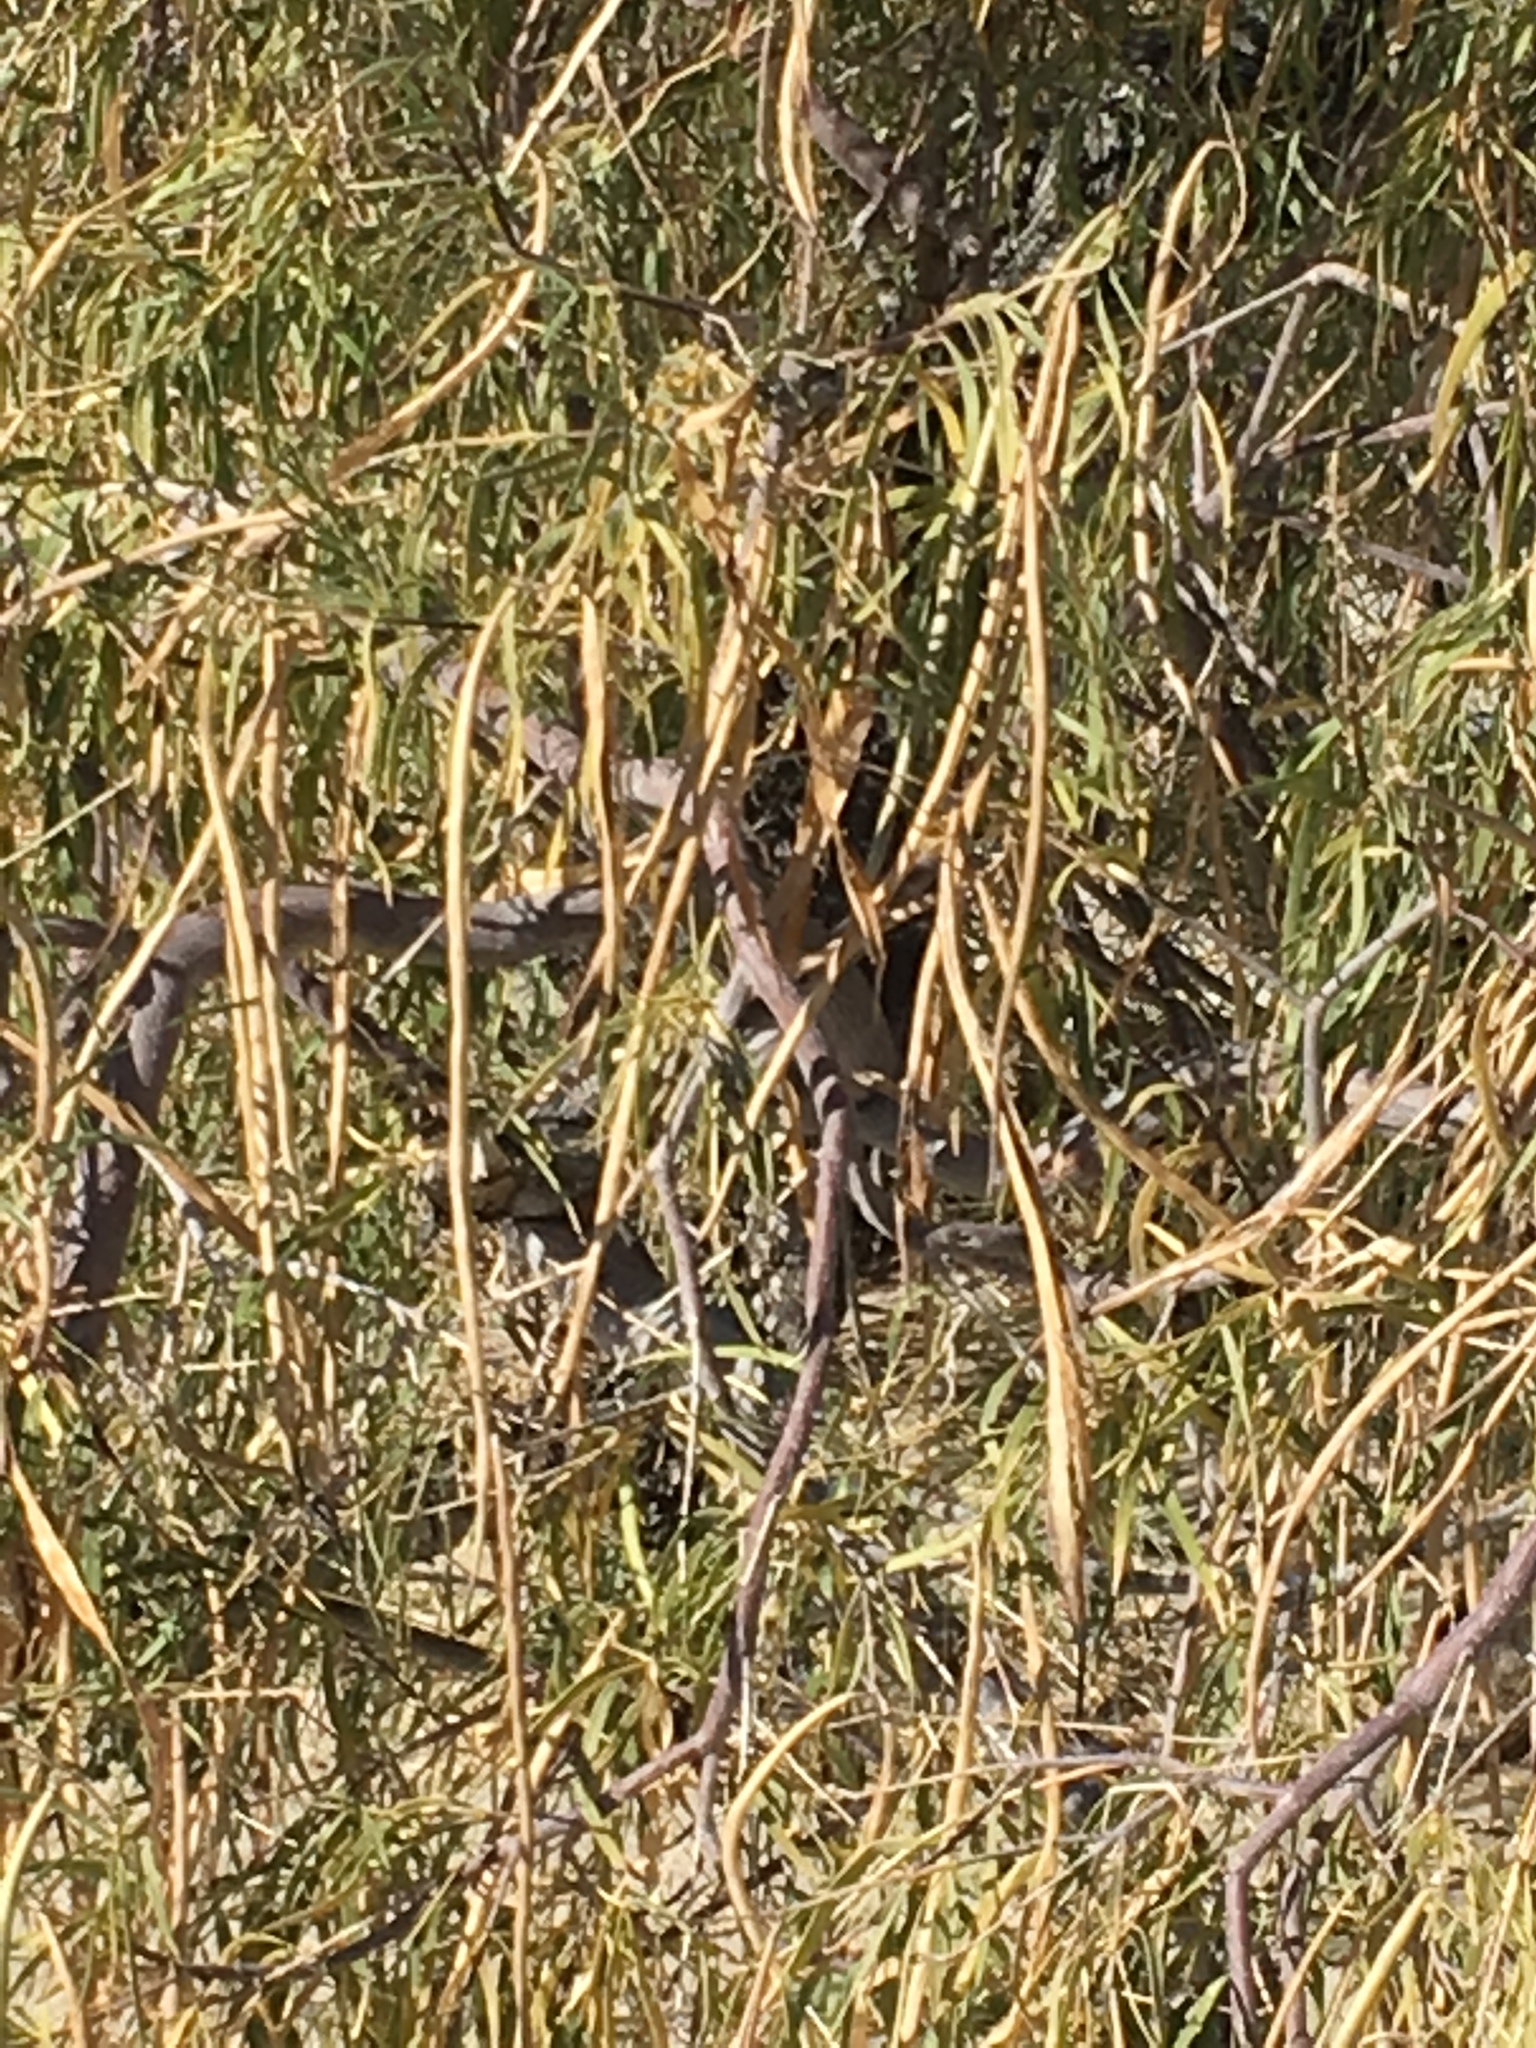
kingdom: Plantae
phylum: Tracheophyta
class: Magnoliopsida
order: Lamiales
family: Bignoniaceae
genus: Chilopsis
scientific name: Chilopsis linearis
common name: Desert-willow
